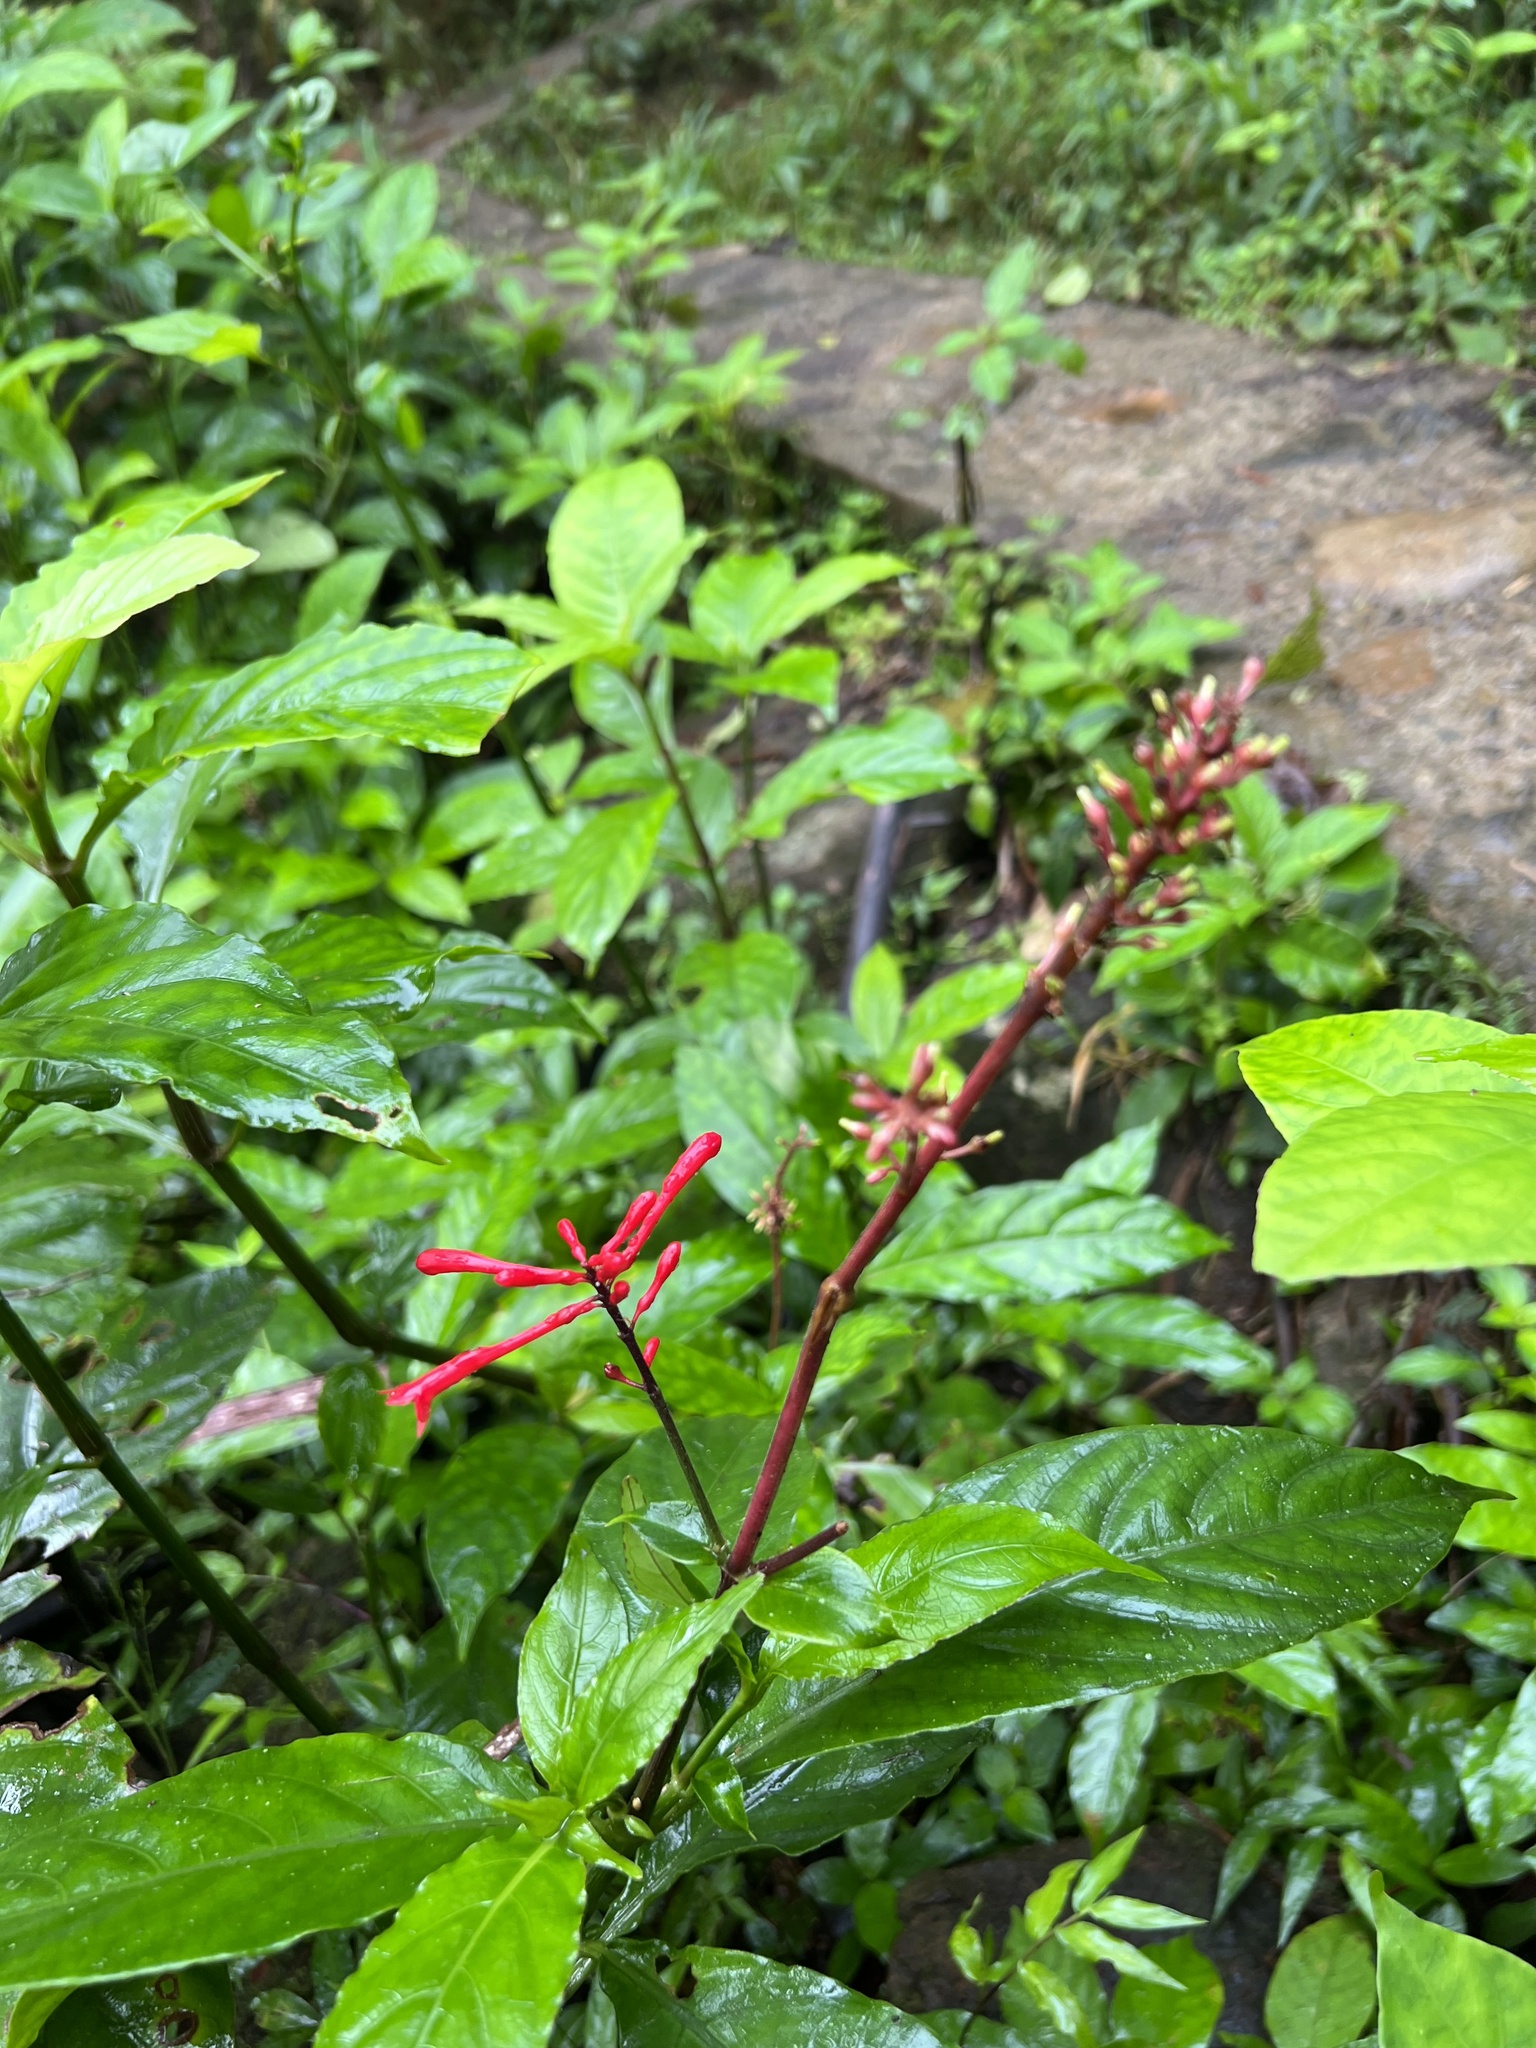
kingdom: Plantae
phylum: Tracheophyta
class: Magnoliopsida
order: Lamiales
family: Acanthaceae
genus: Odontonema
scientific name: Odontonema cuspidatum
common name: Mottled toothedthread
